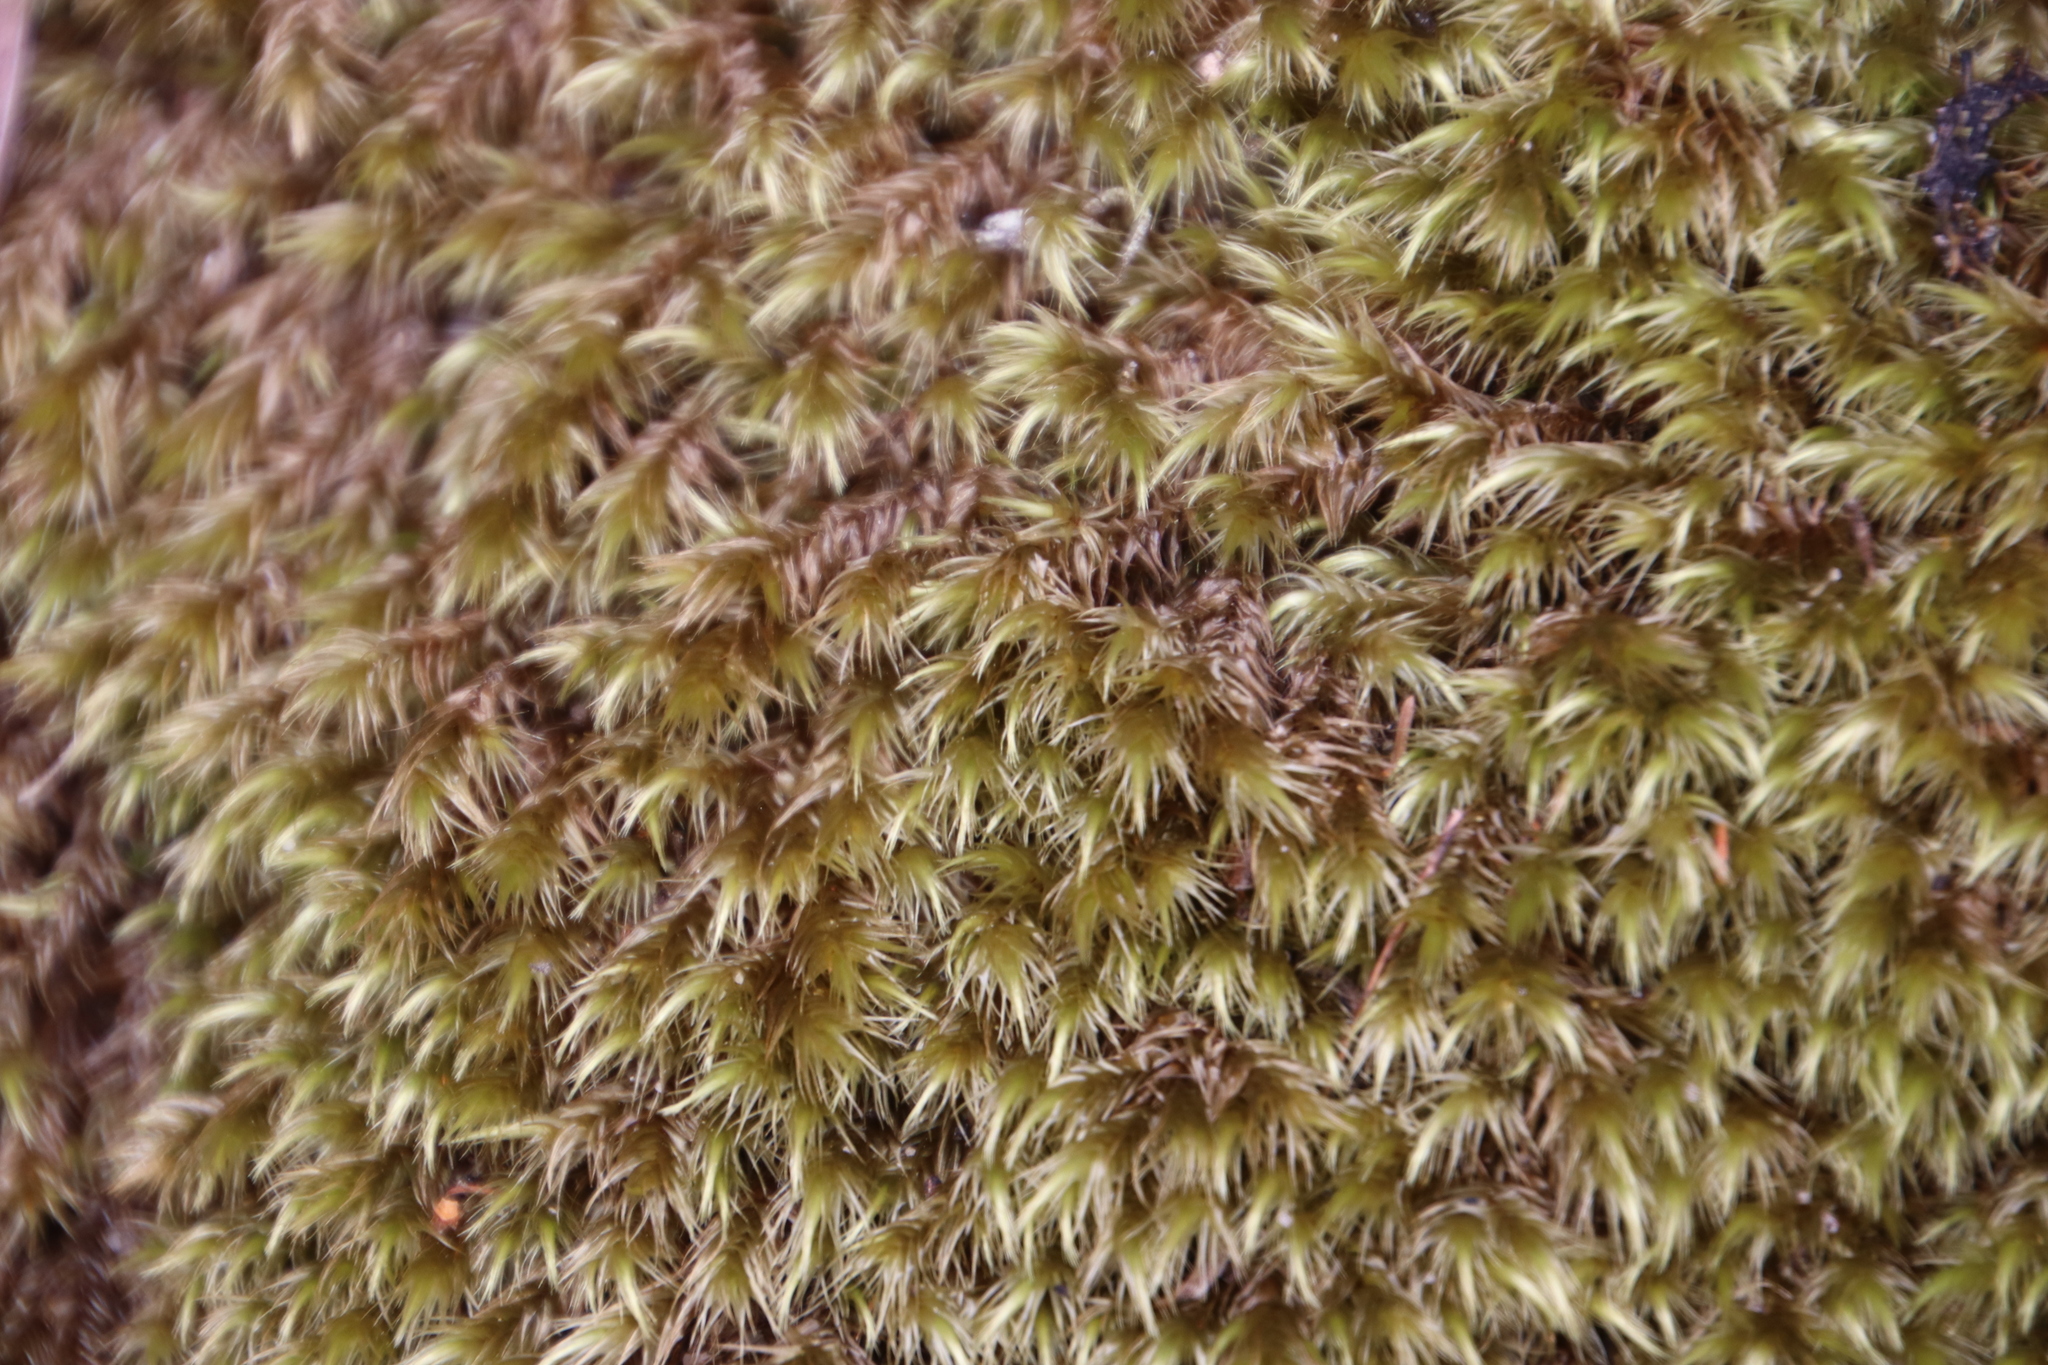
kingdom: Plantae
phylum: Bryophyta
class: Bryopsida
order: Dicranales
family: Dicranaceae
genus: Dicranoloma
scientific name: Dicranoloma billardieri
